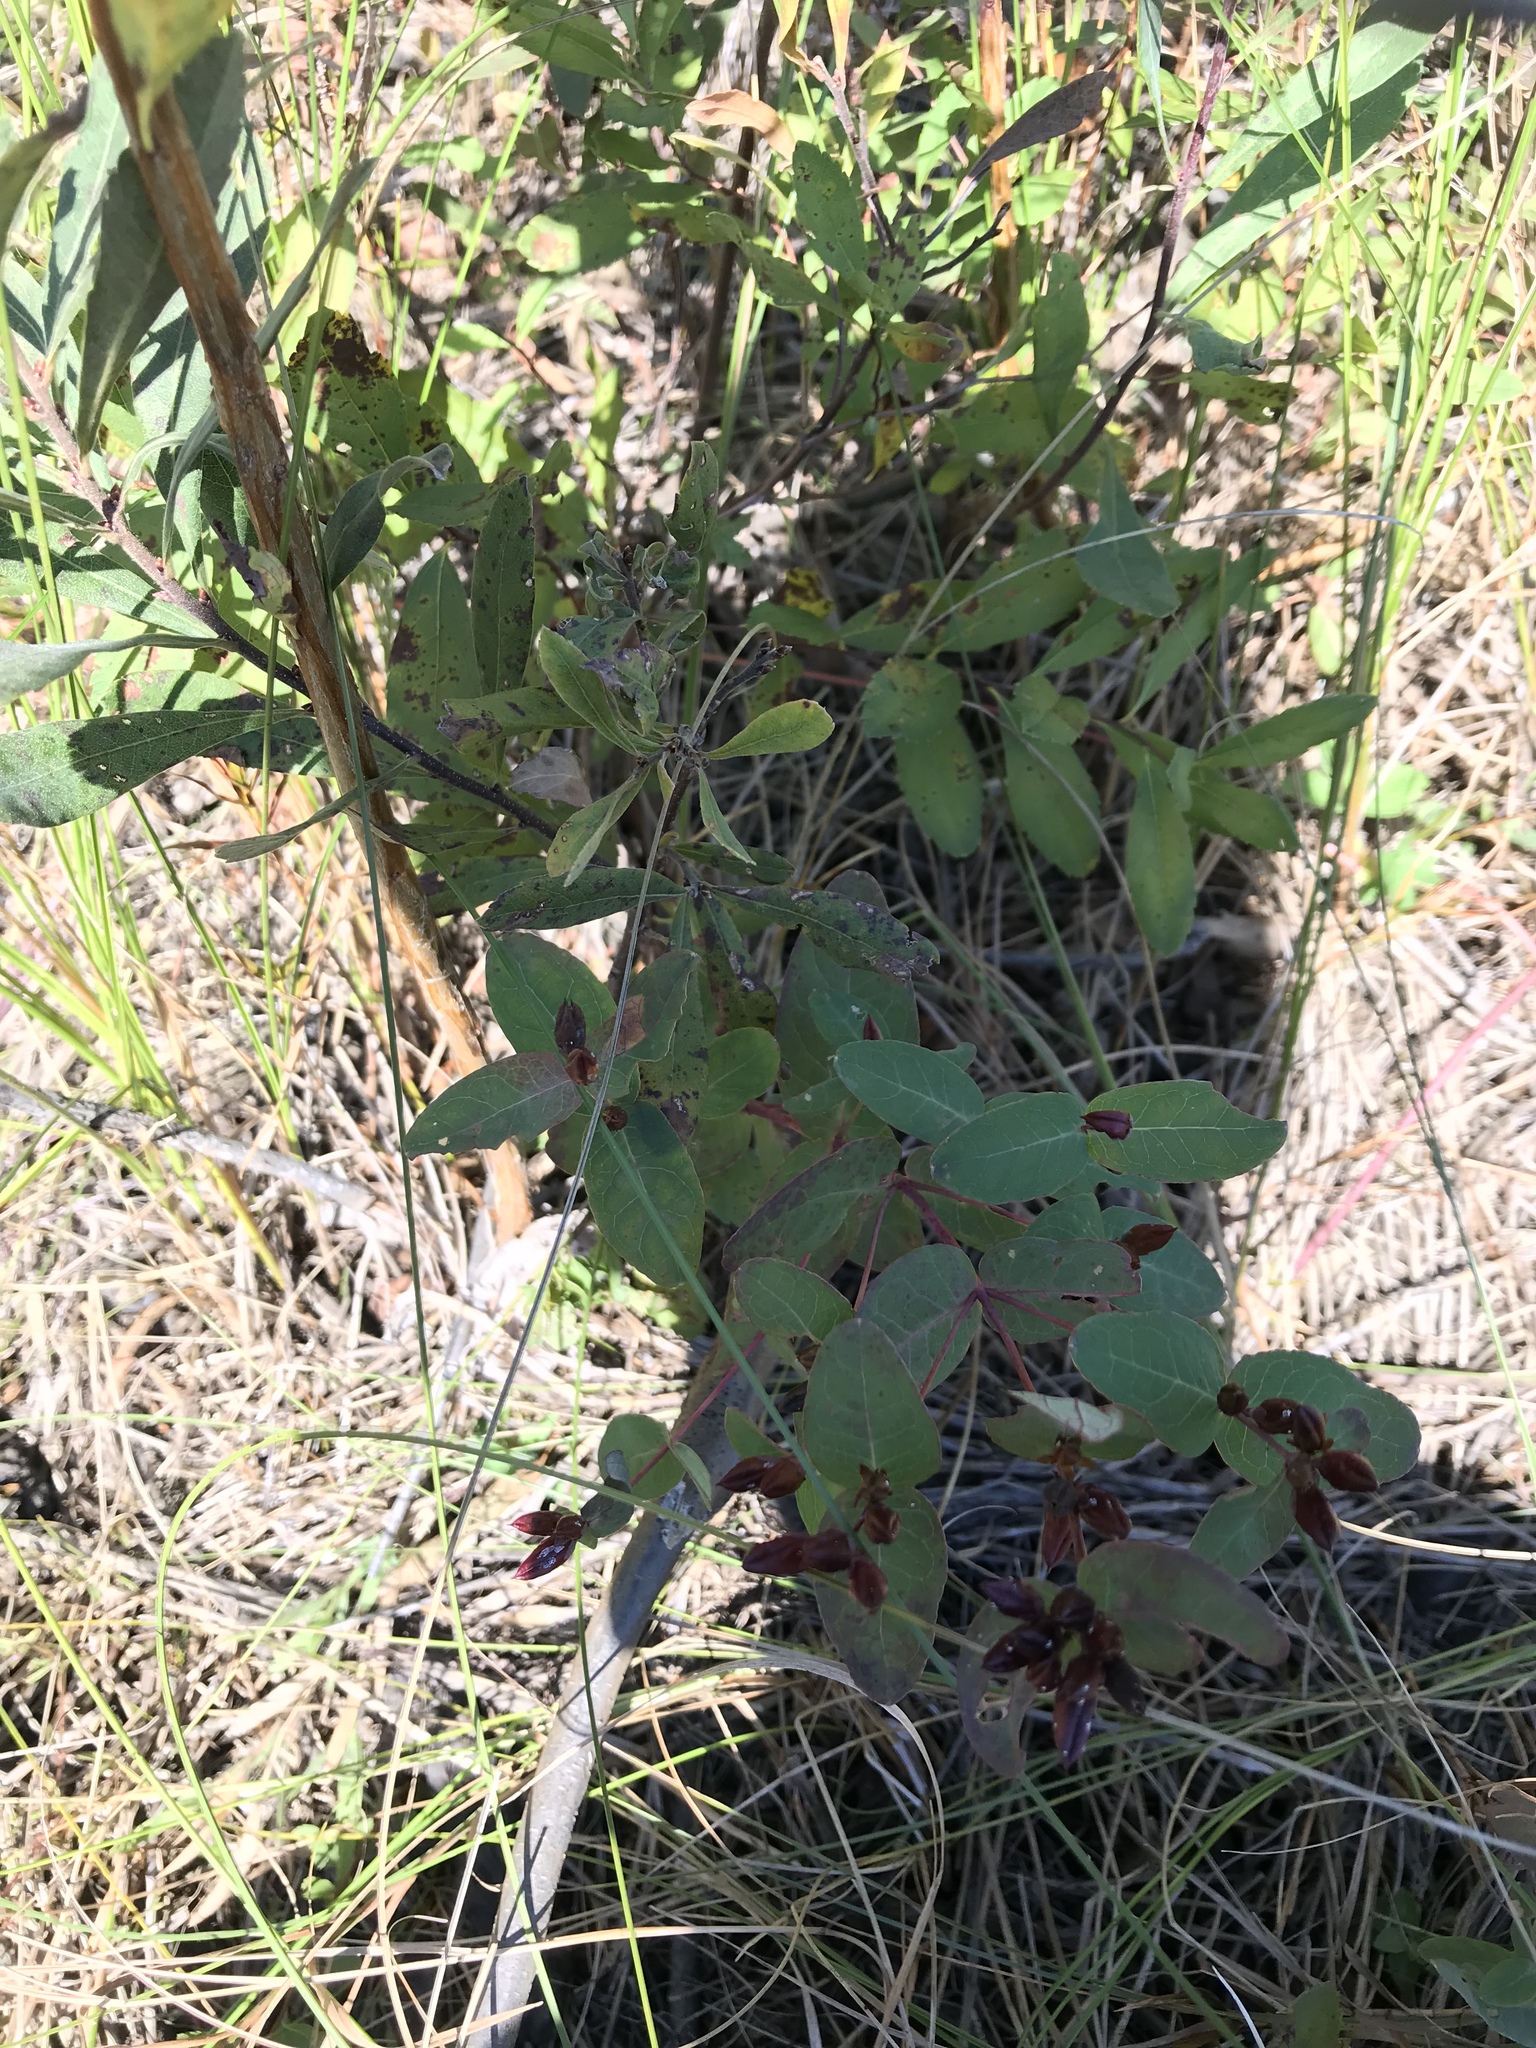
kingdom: Plantae
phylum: Tracheophyta
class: Magnoliopsida
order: Malpighiales
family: Hypericaceae
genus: Triadenum
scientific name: Triadenum fraseri
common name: Fraser's marsh st. johnswort
